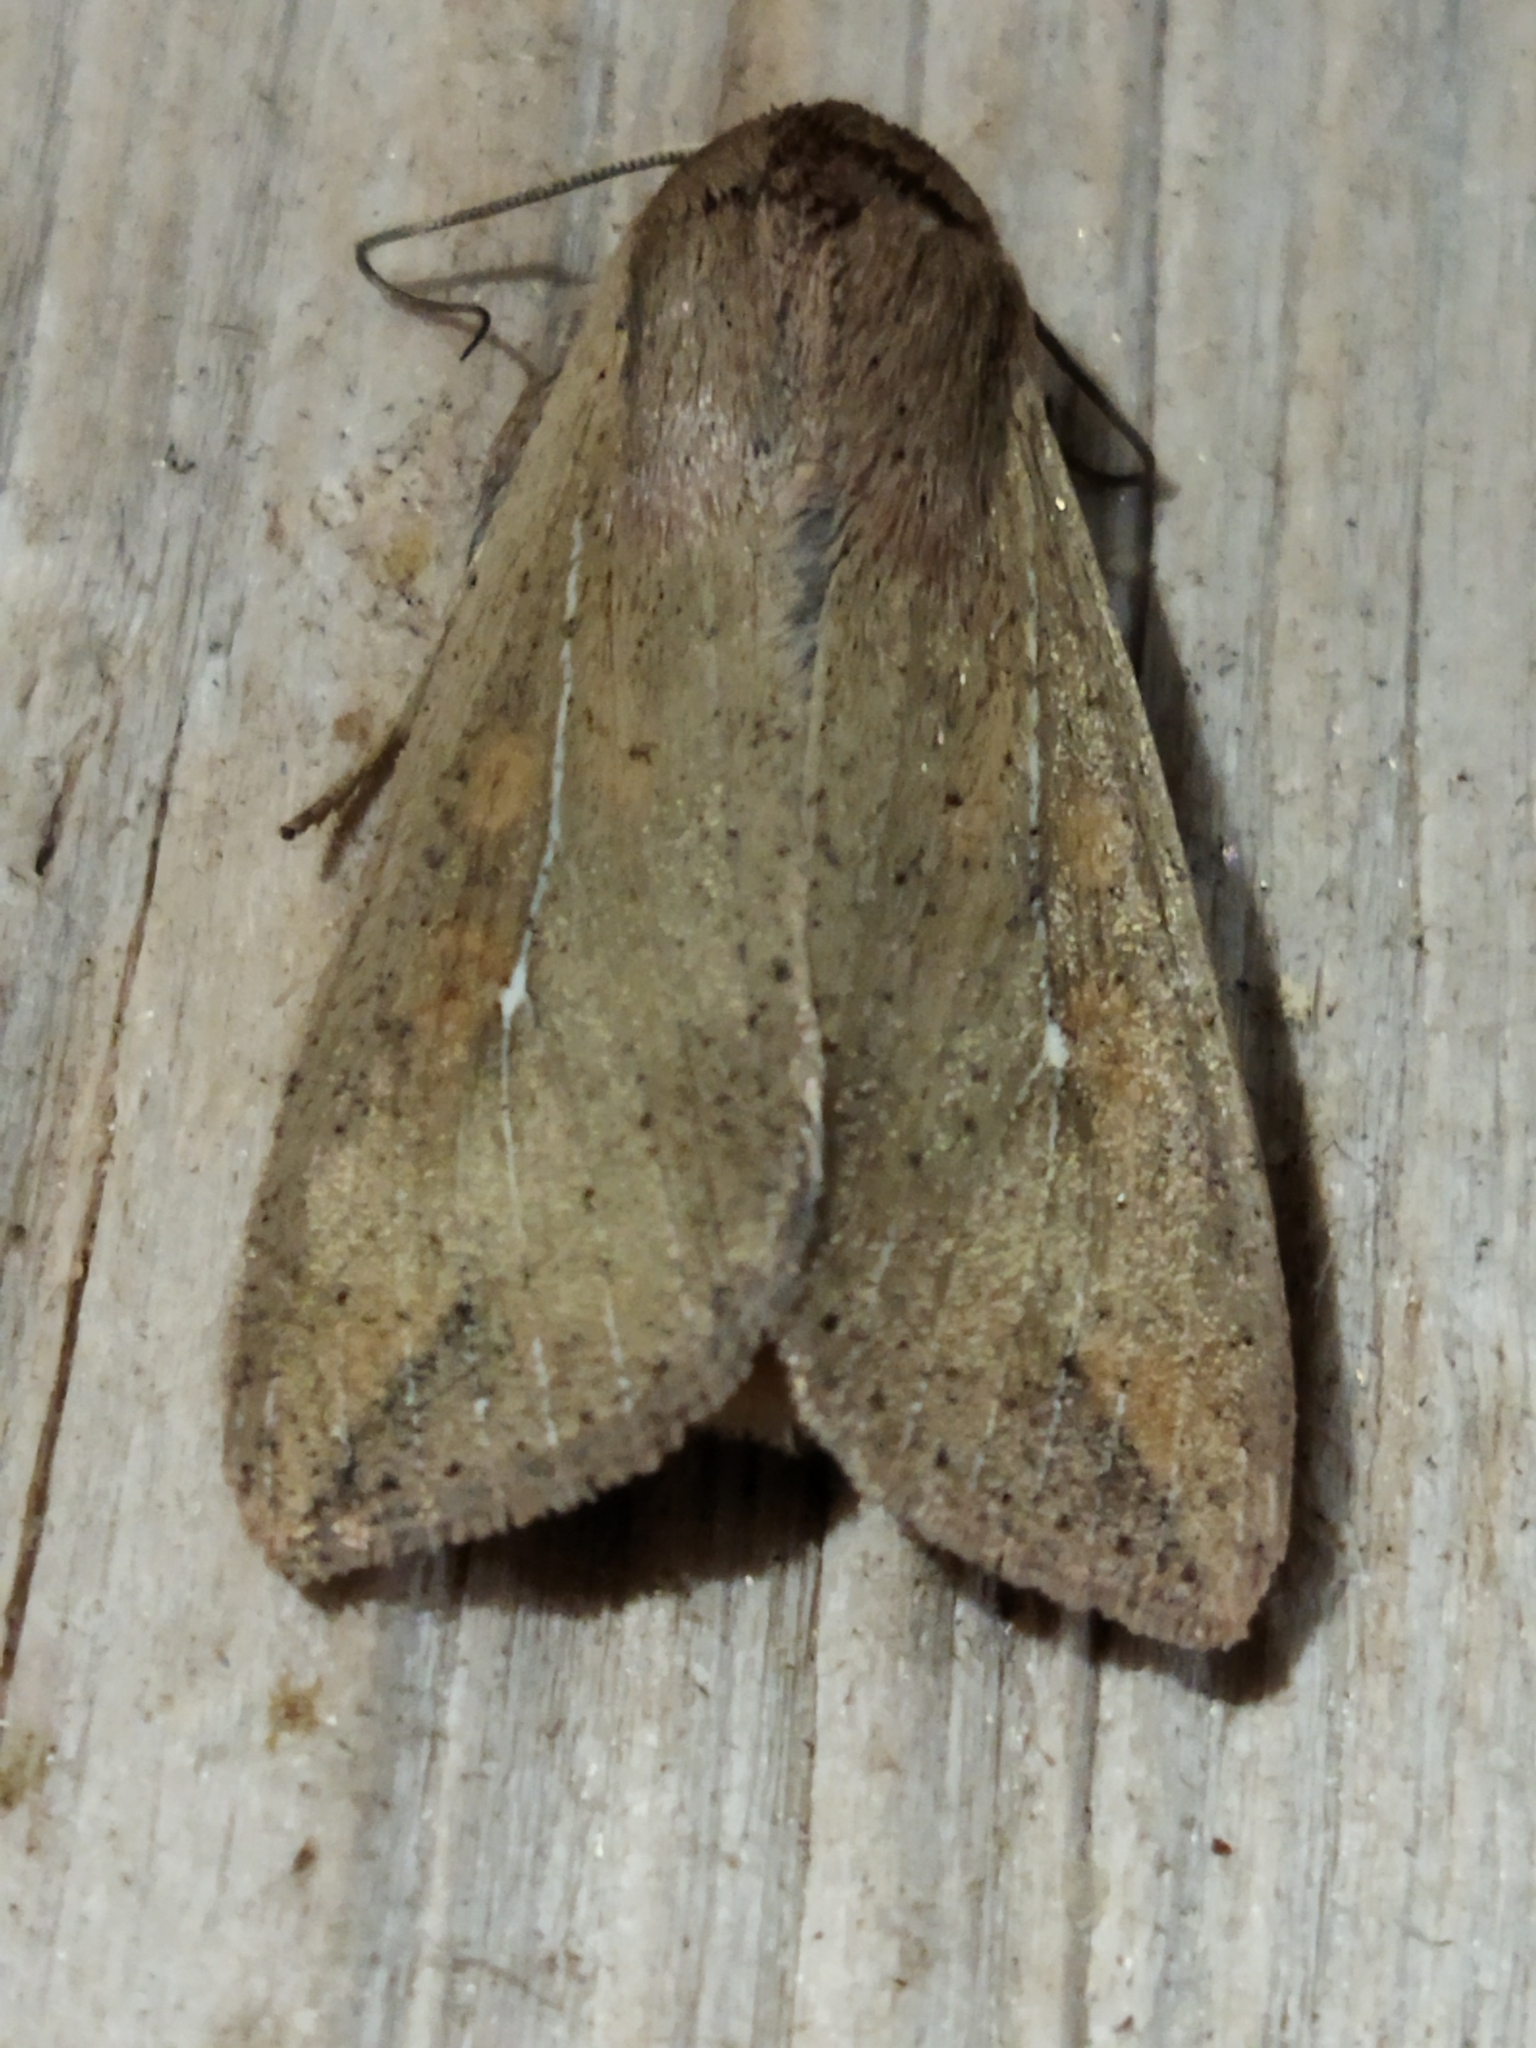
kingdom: Animalia
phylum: Arthropoda
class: Insecta
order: Lepidoptera
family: Noctuidae
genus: Mythimna
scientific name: Mythimna unipuncta
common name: White-speck
